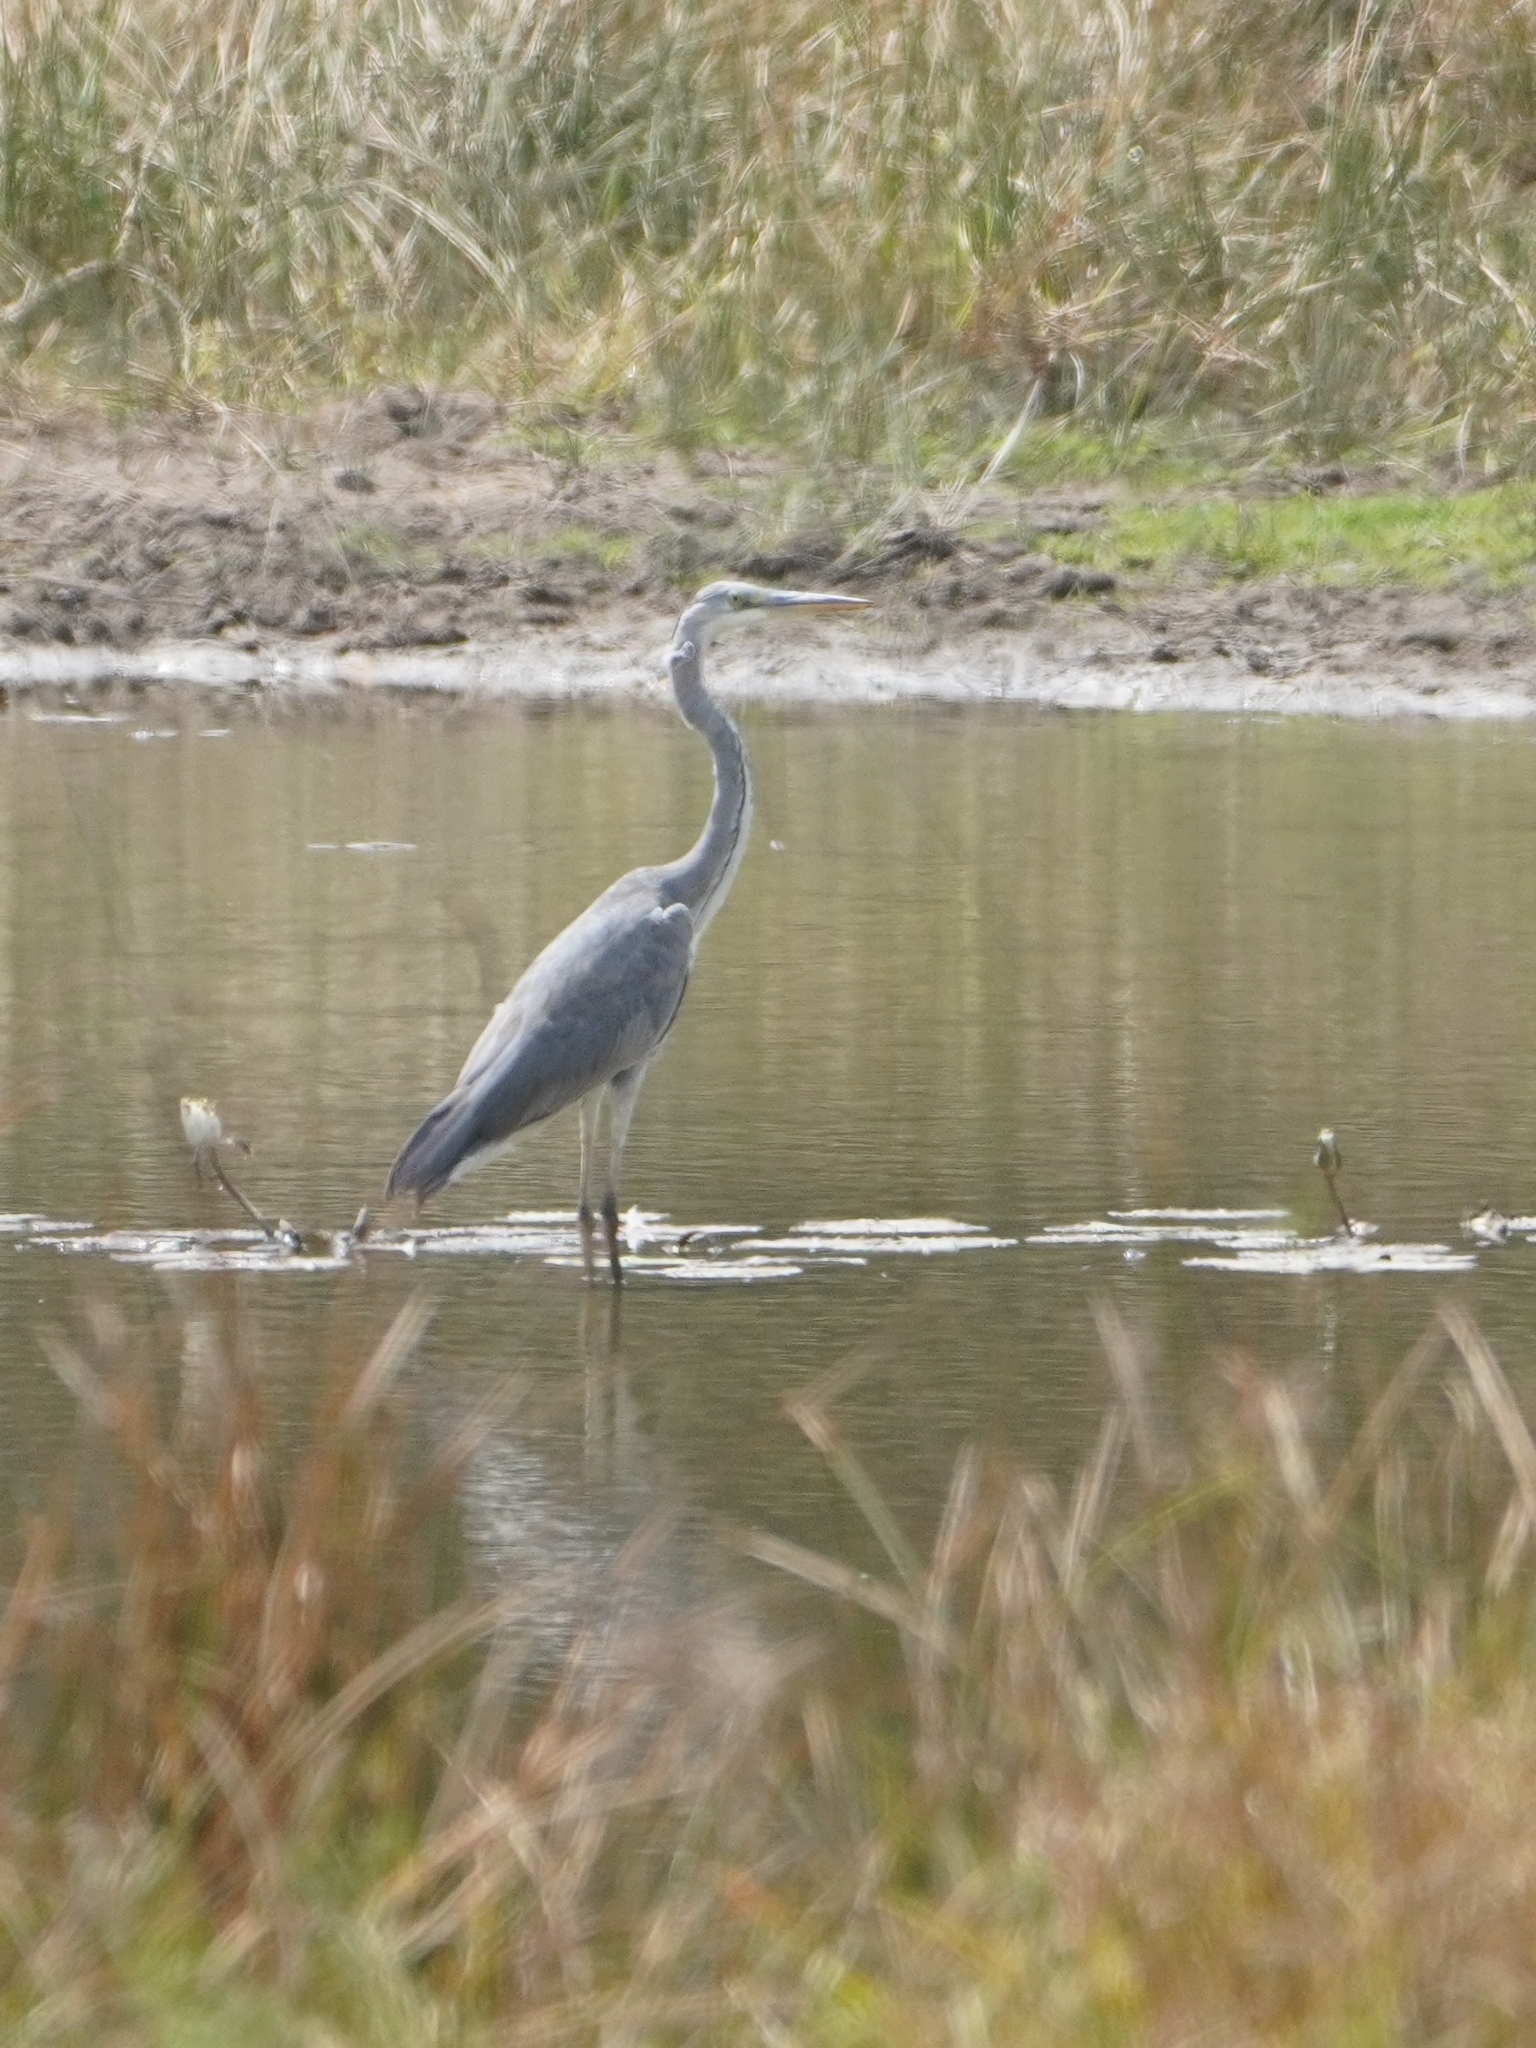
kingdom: Animalia
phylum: Chordata
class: Aves
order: Pelecaniformes
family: Ardeidae
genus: Ardea
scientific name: Ardea cinerea
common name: Grey heron
